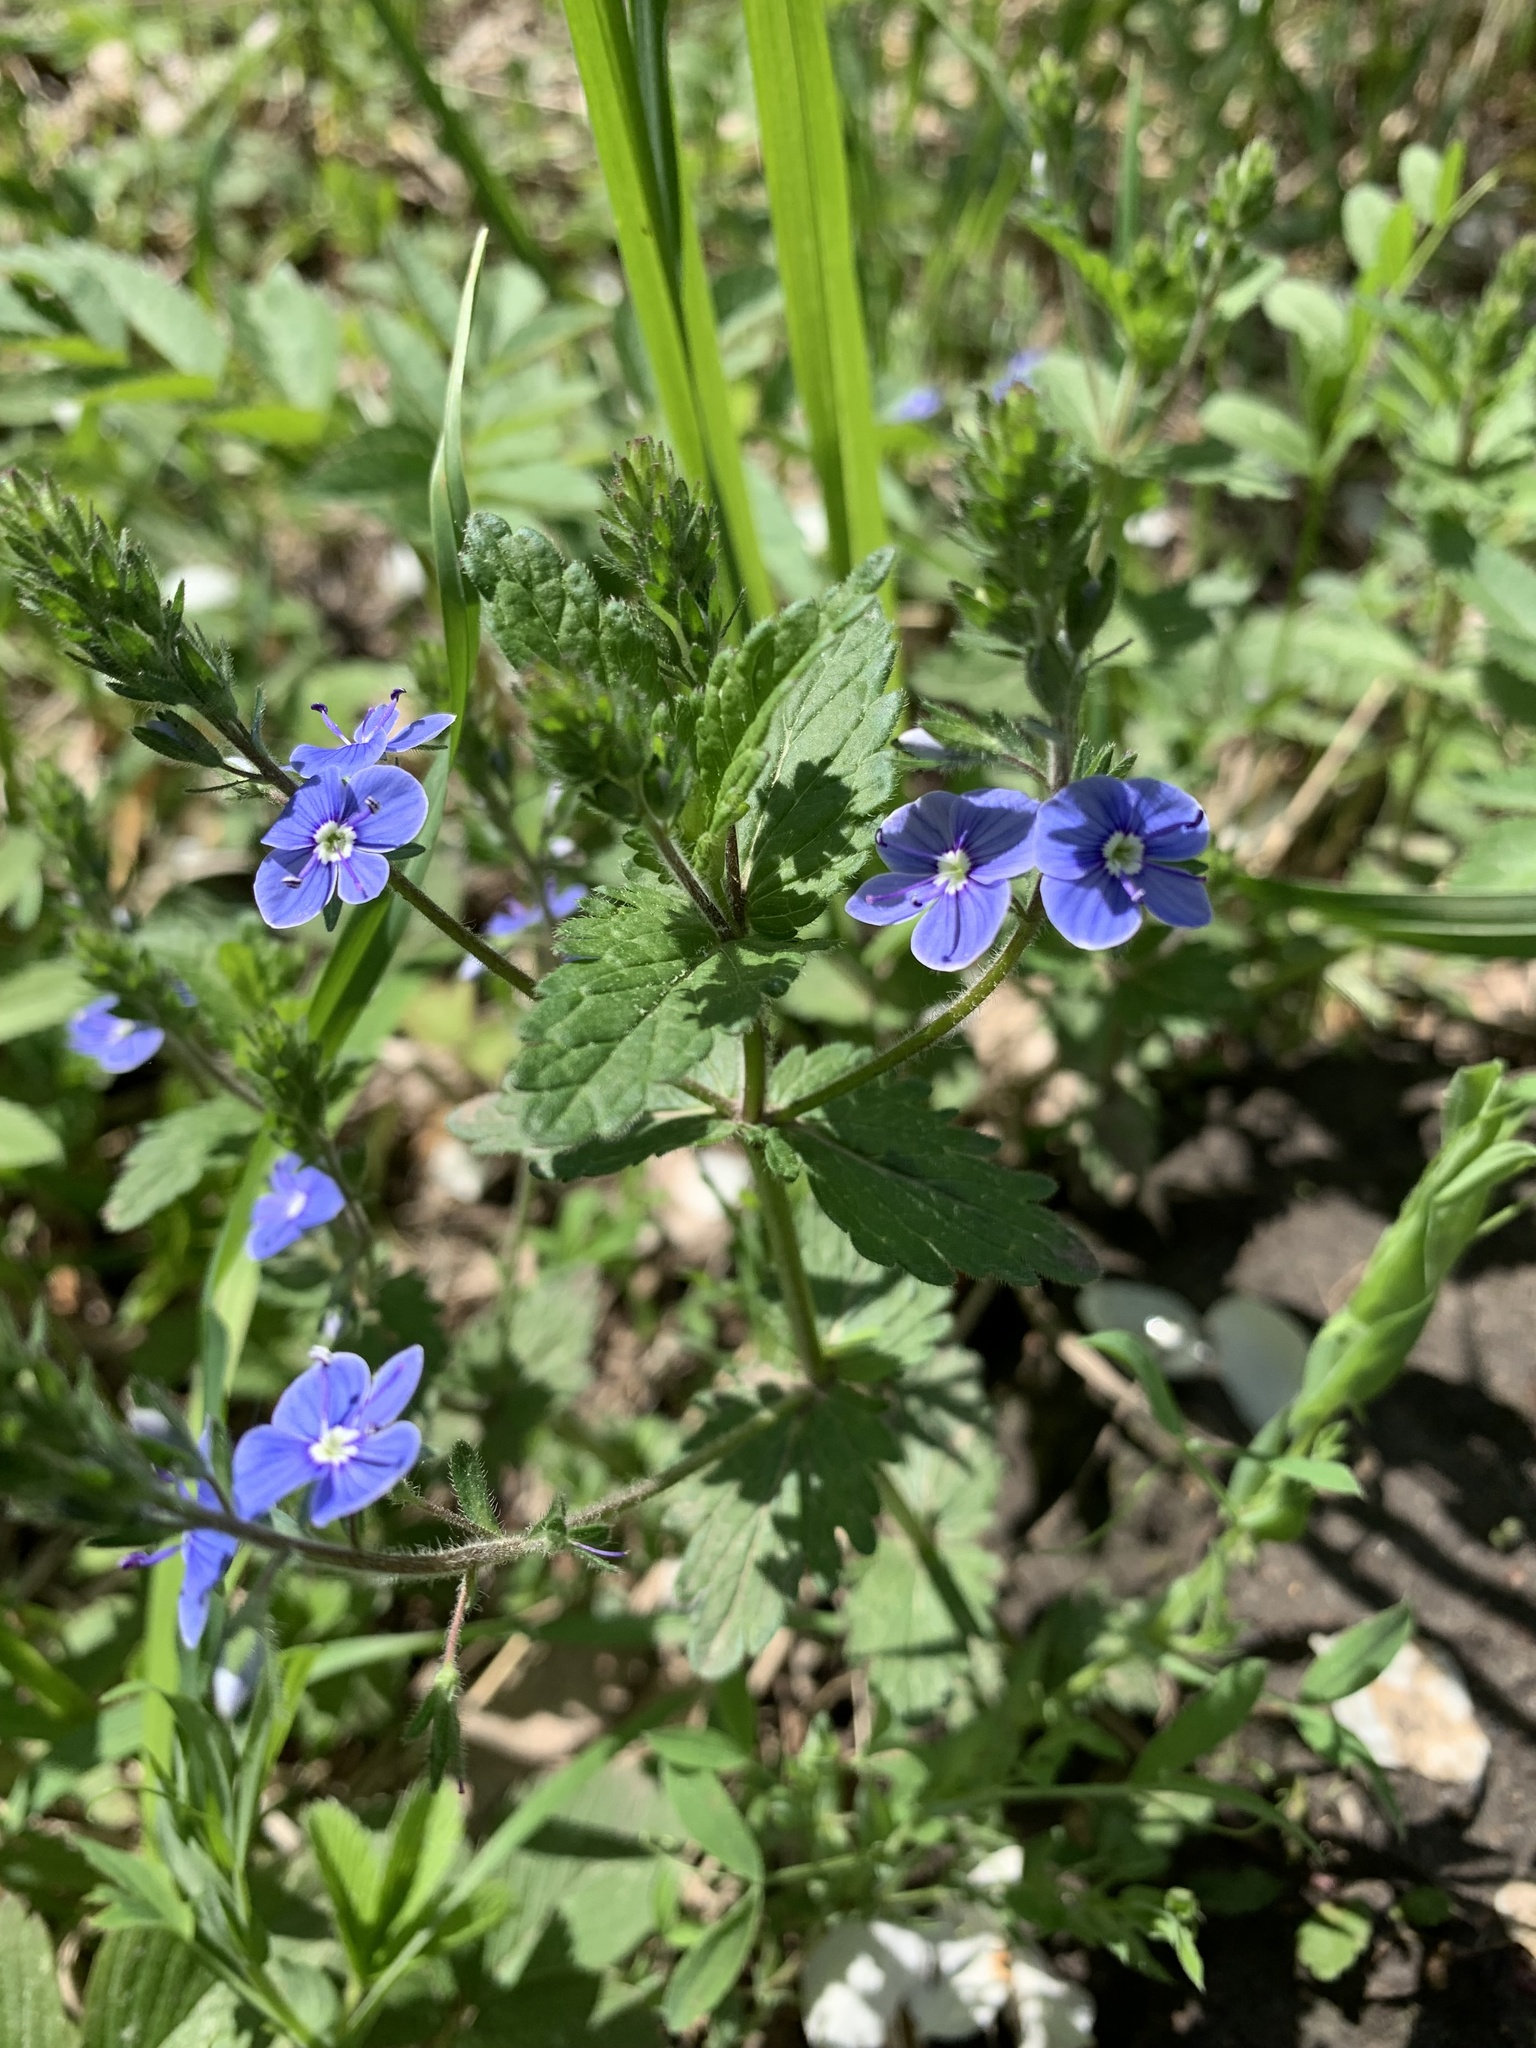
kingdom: Plantae
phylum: Tracheophyta
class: Magnoliopsida
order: Lamiales
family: Plantaginaceae
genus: Veronica
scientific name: Veronica chamaedrys
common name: Germander speedwell
